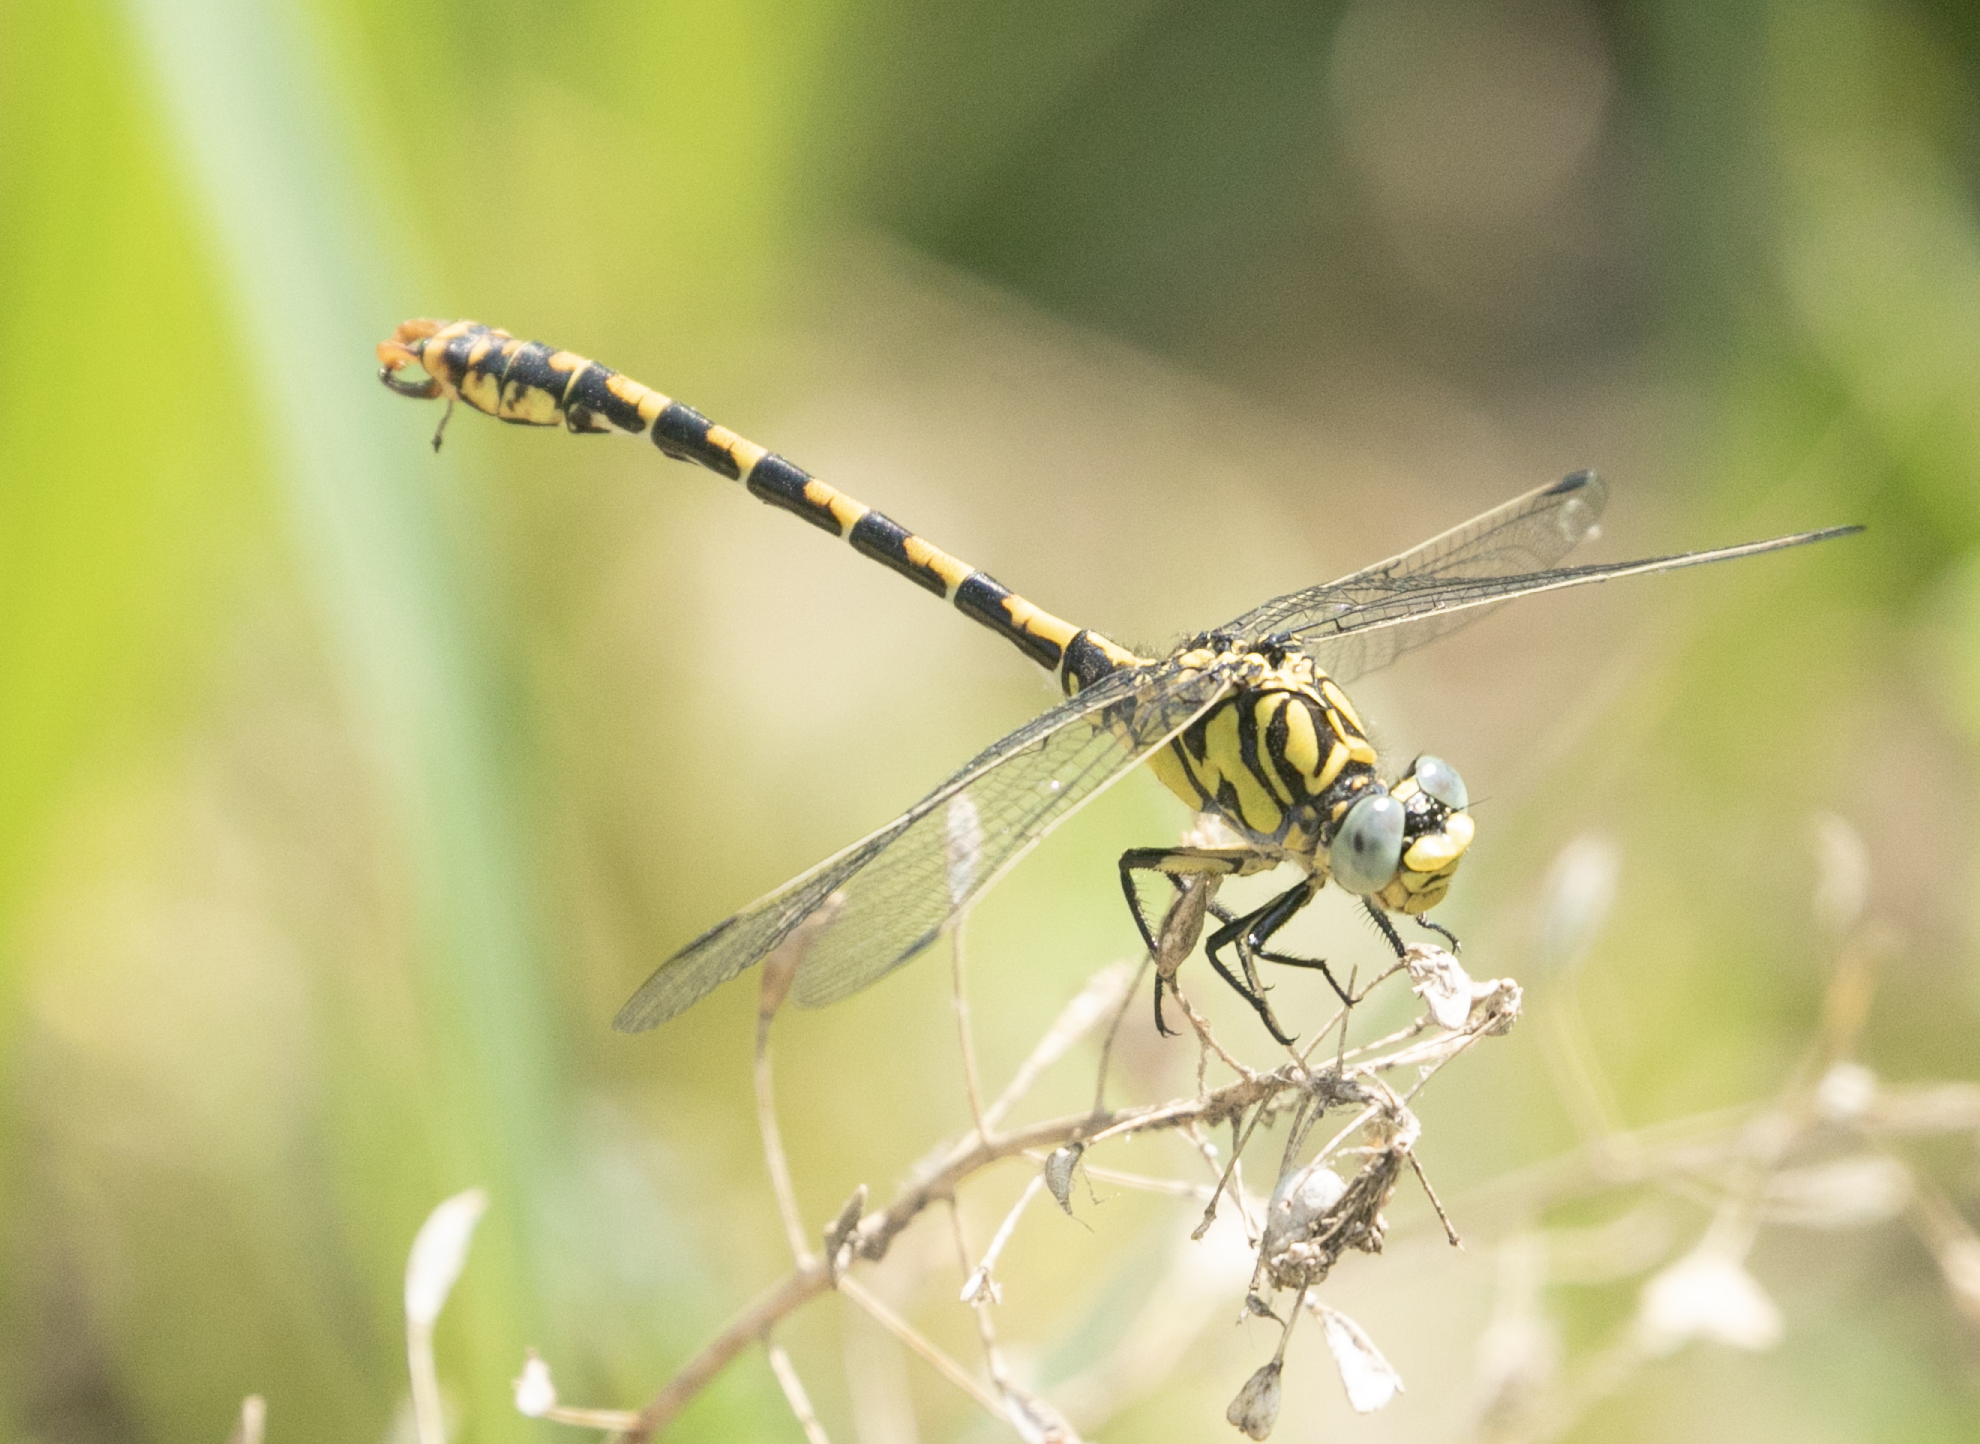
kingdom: Animalia
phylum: Arthropoda
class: Insecta
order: Odonata
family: Gomphidae
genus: Onychogomphus
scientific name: Onychogomphus forcipatus
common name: Small pincertail
